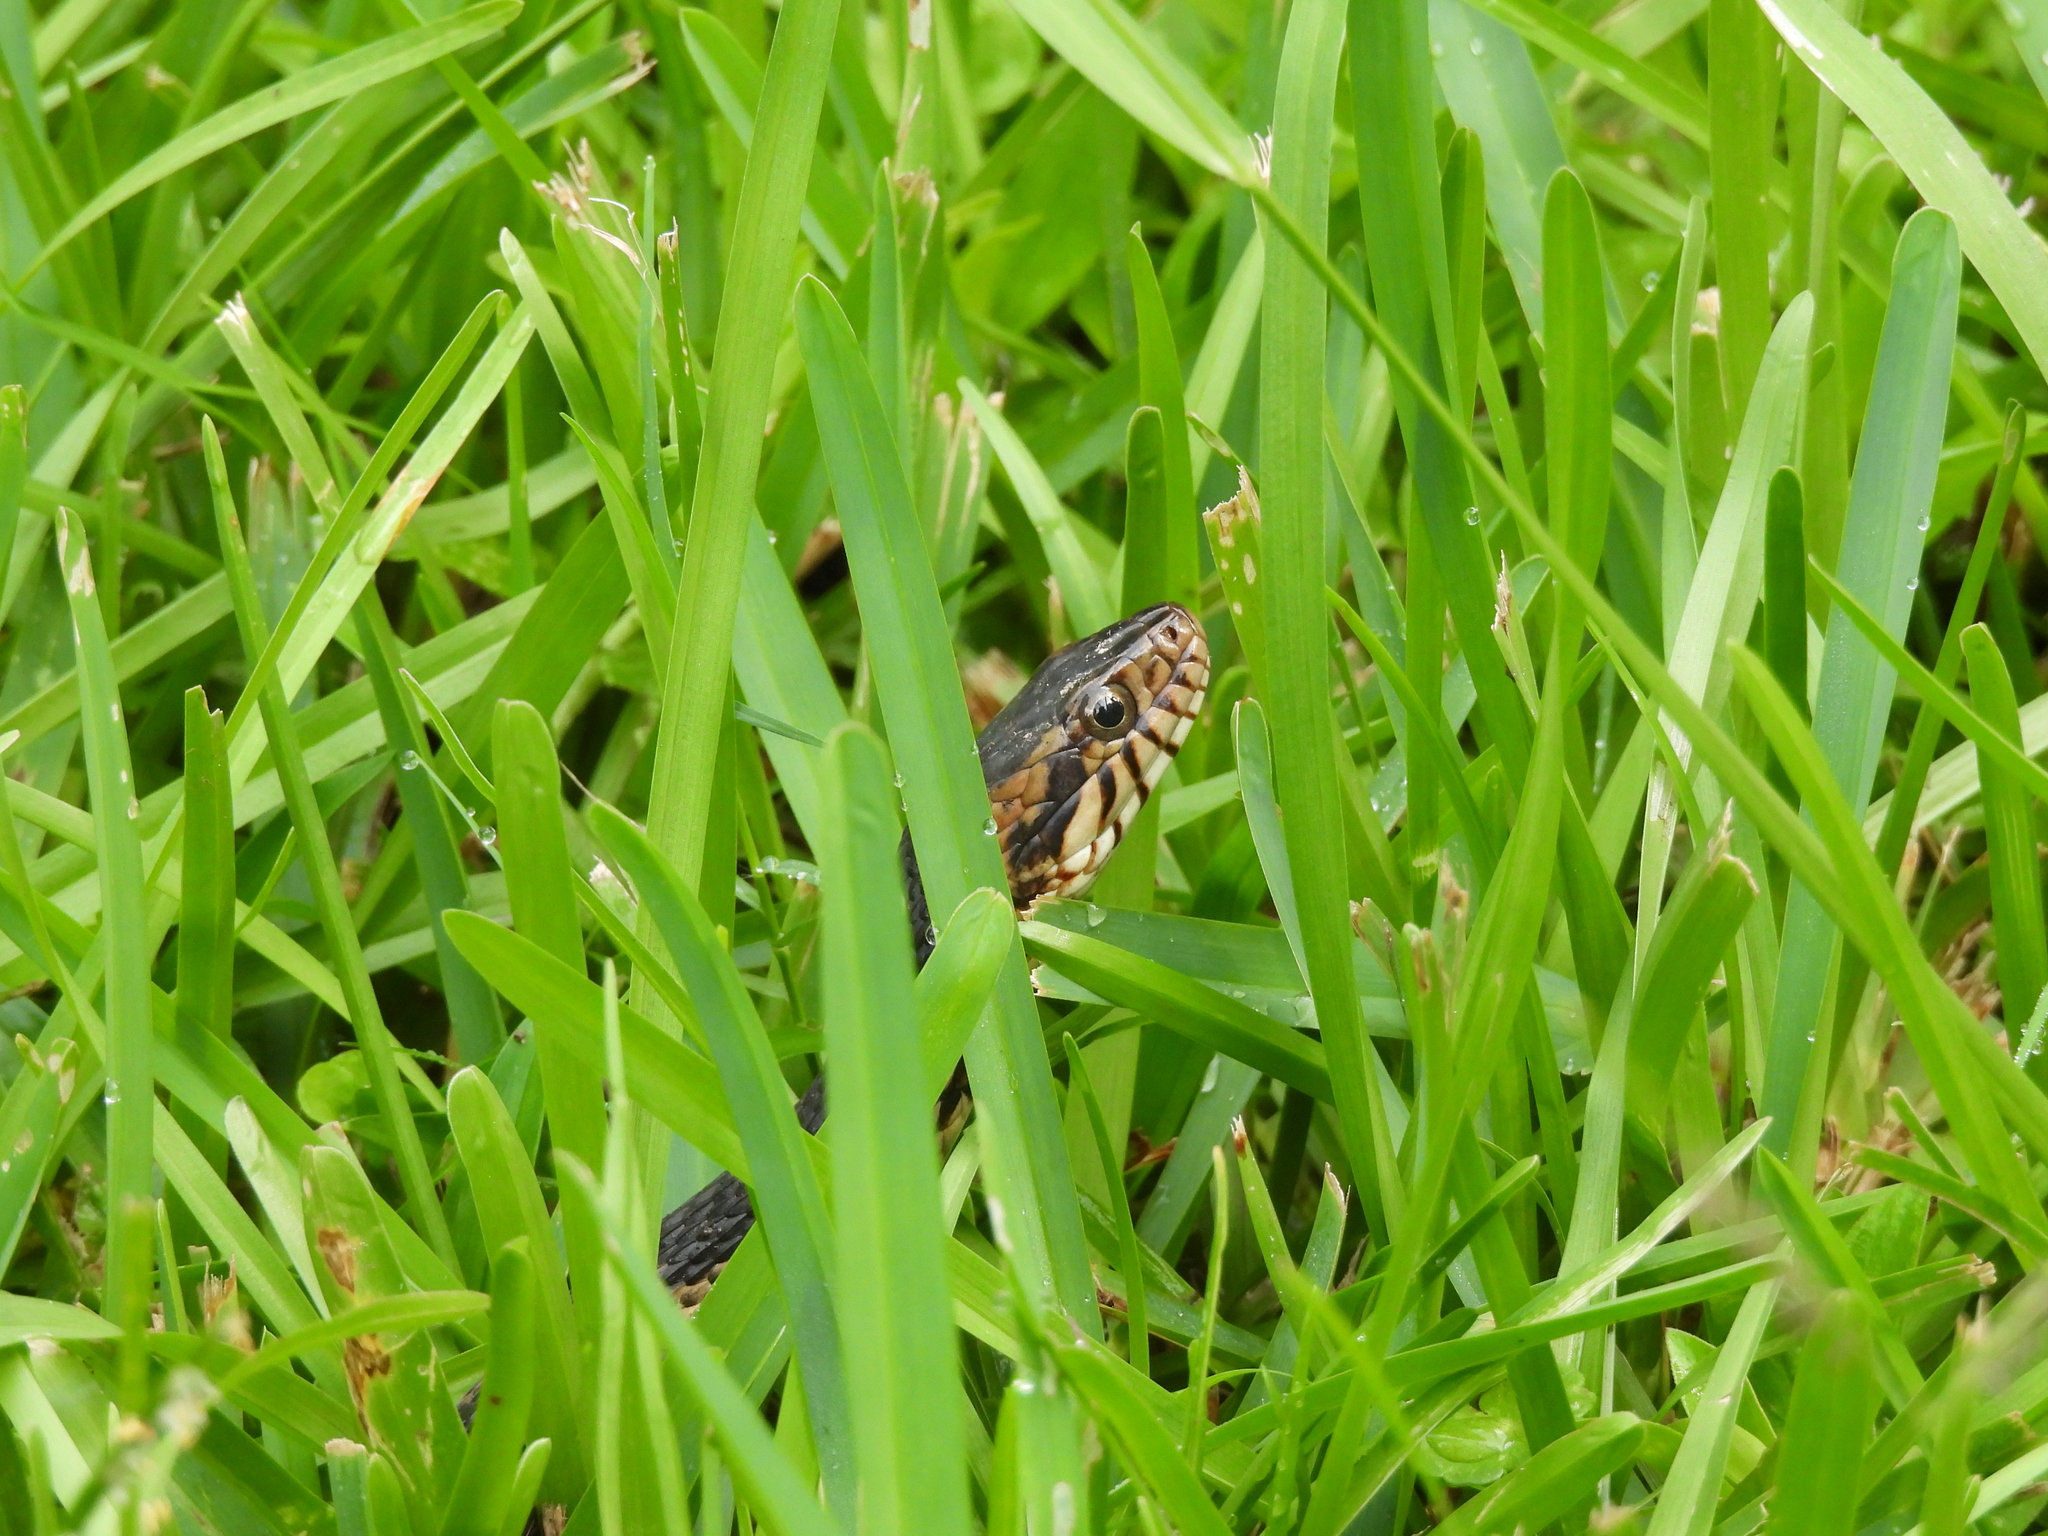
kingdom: Animalia
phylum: Chordata
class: Squamata
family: Colubridae
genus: Nerodia
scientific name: Nerodia fasciata
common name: Southern water snake
